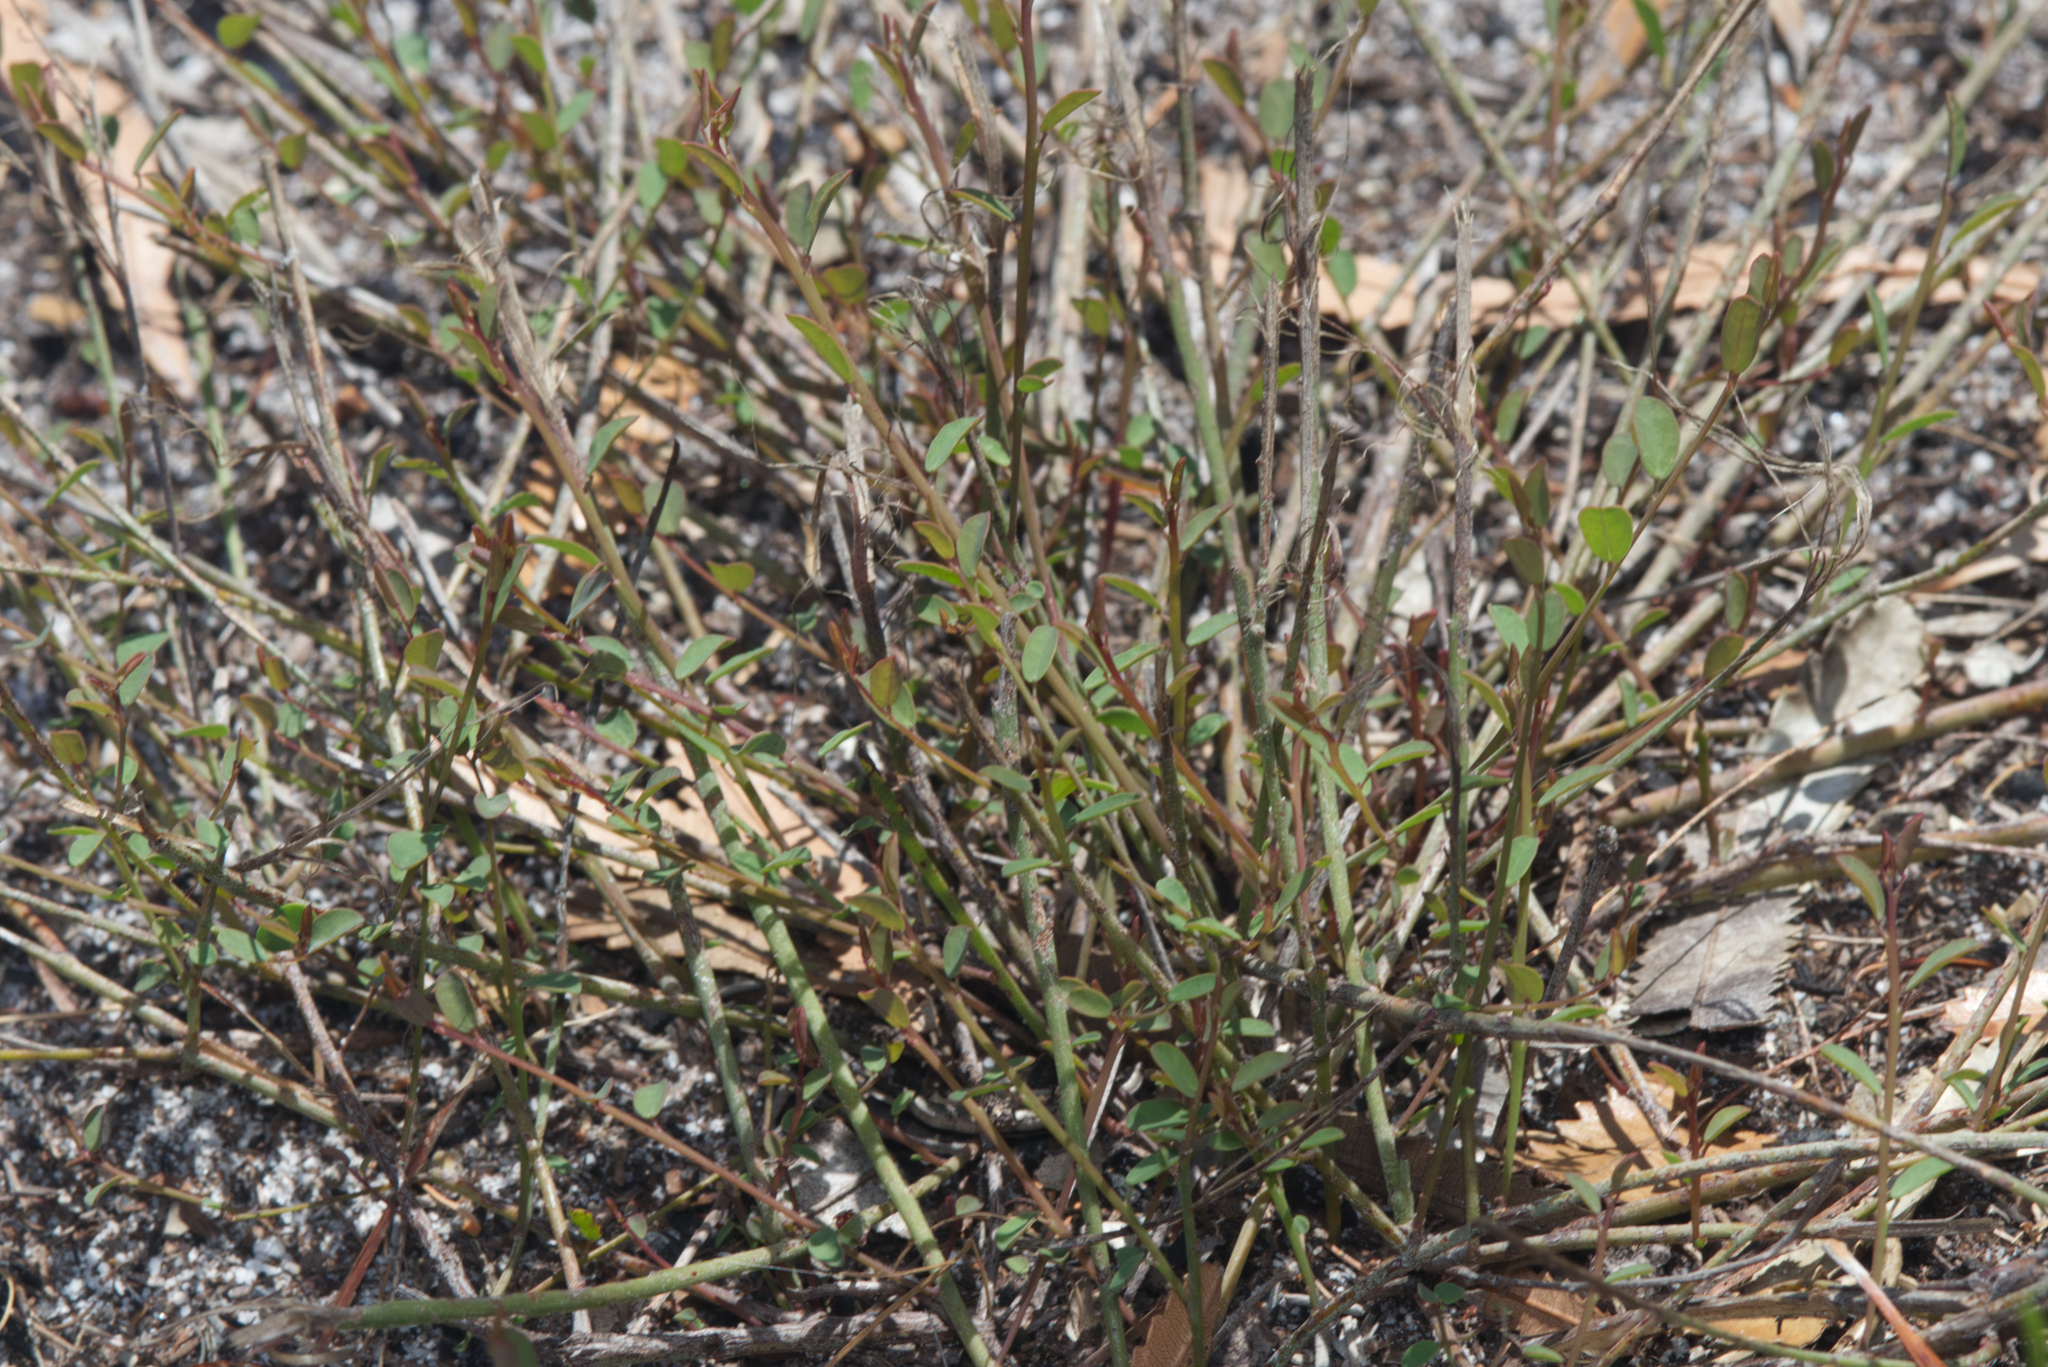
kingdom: Plantae
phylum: Tracheophyta
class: Magnoliopsida
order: Fabales
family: Fabaceae
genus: Bossiaea
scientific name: Bossiaea heterophylla
